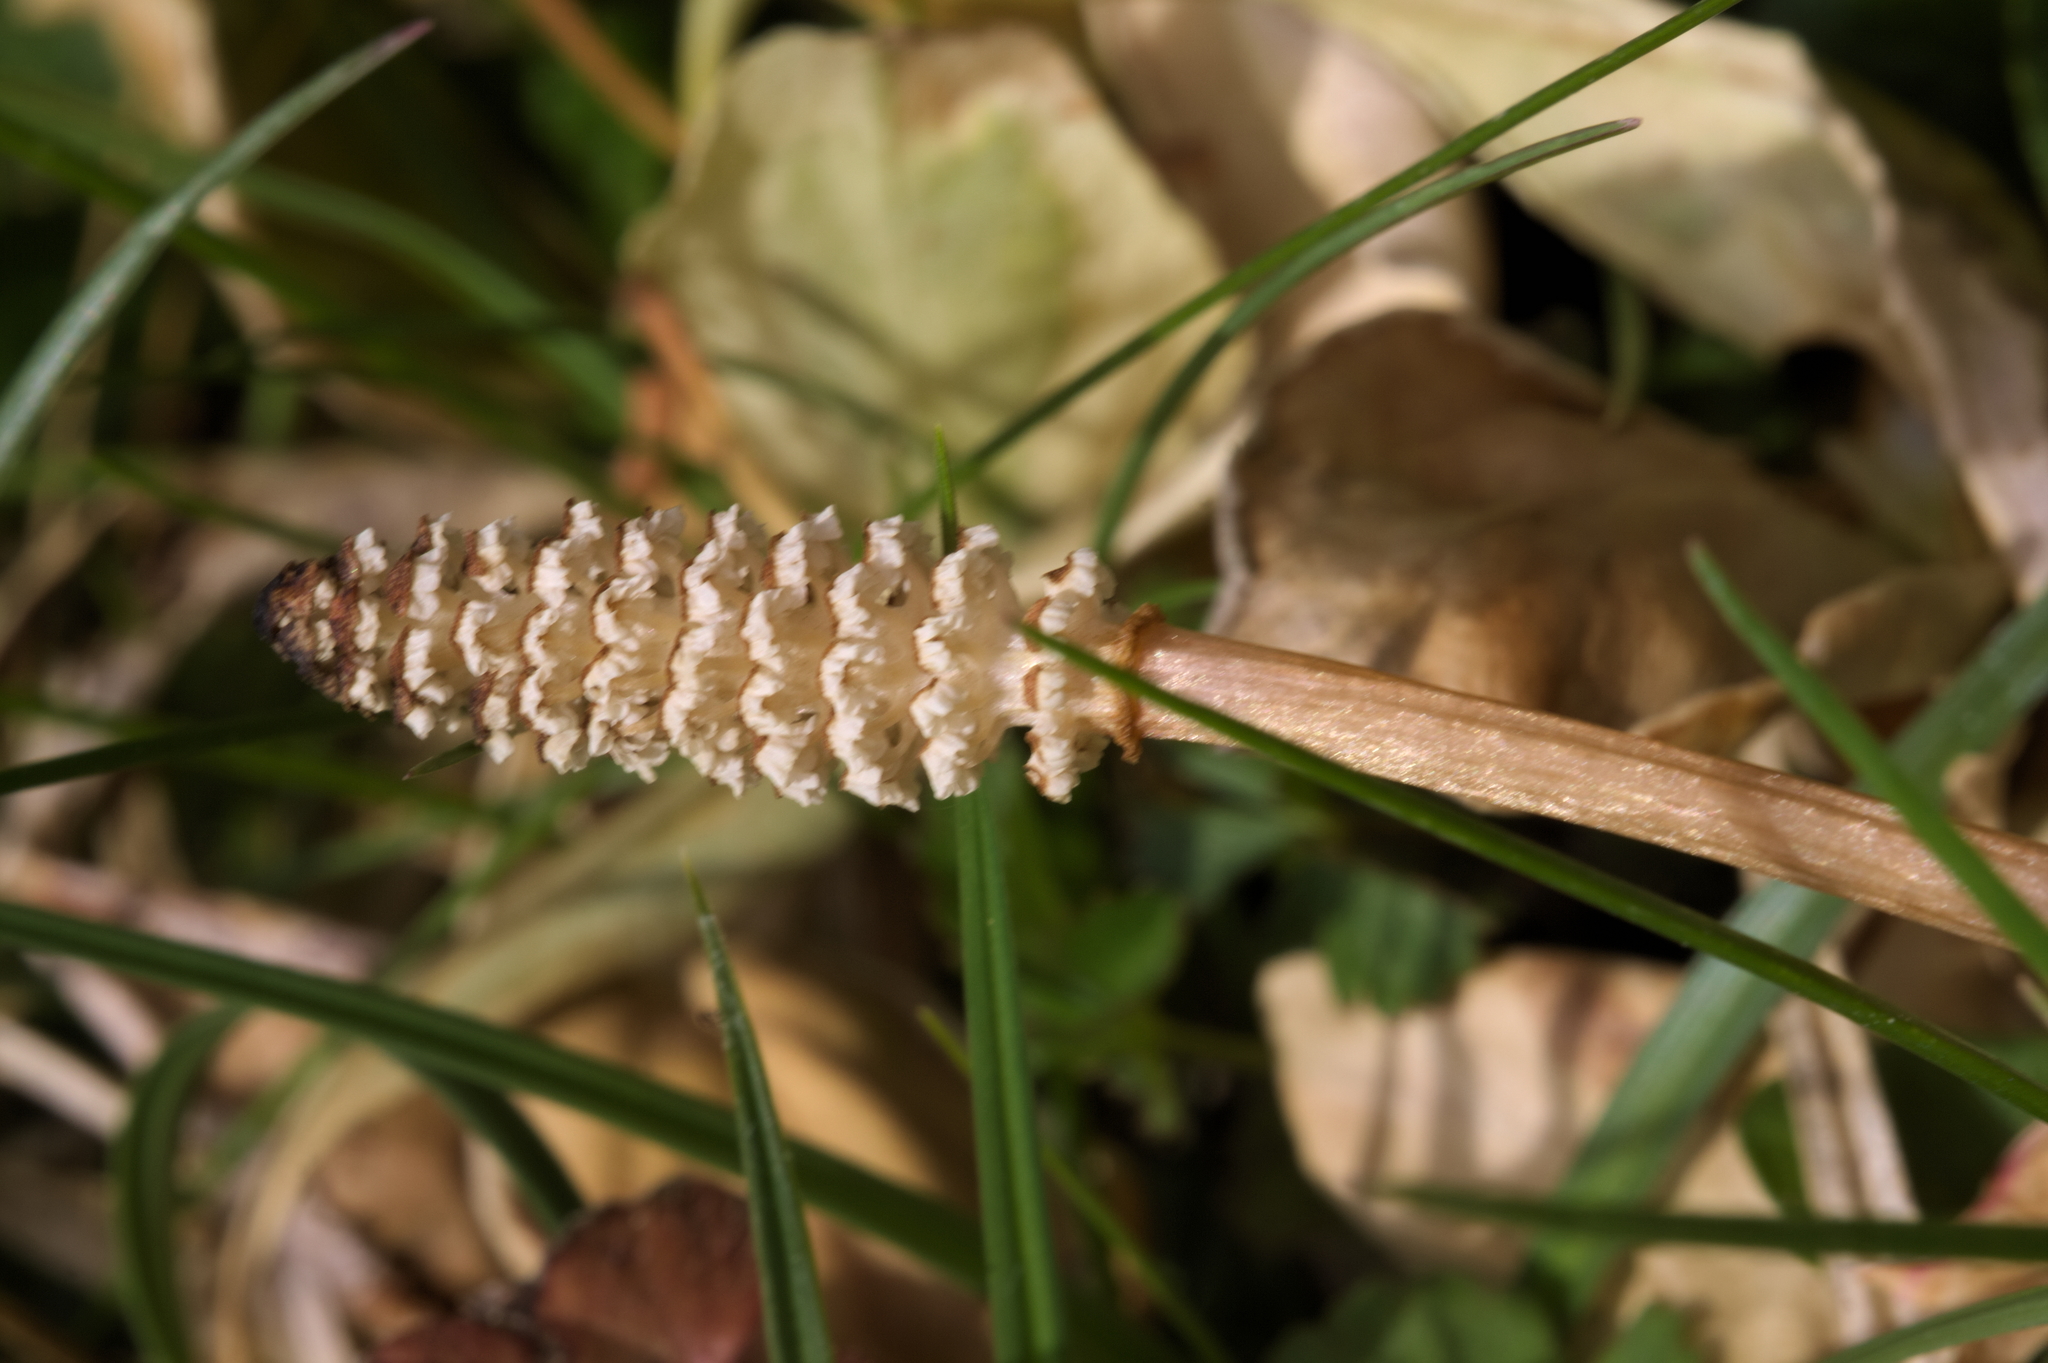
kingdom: Plantae
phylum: Tracheophyta
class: Polypodiopsida
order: Equisetales
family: Equisetaceae
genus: Equisetum
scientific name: Equisetum arvense
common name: Field horsetail
